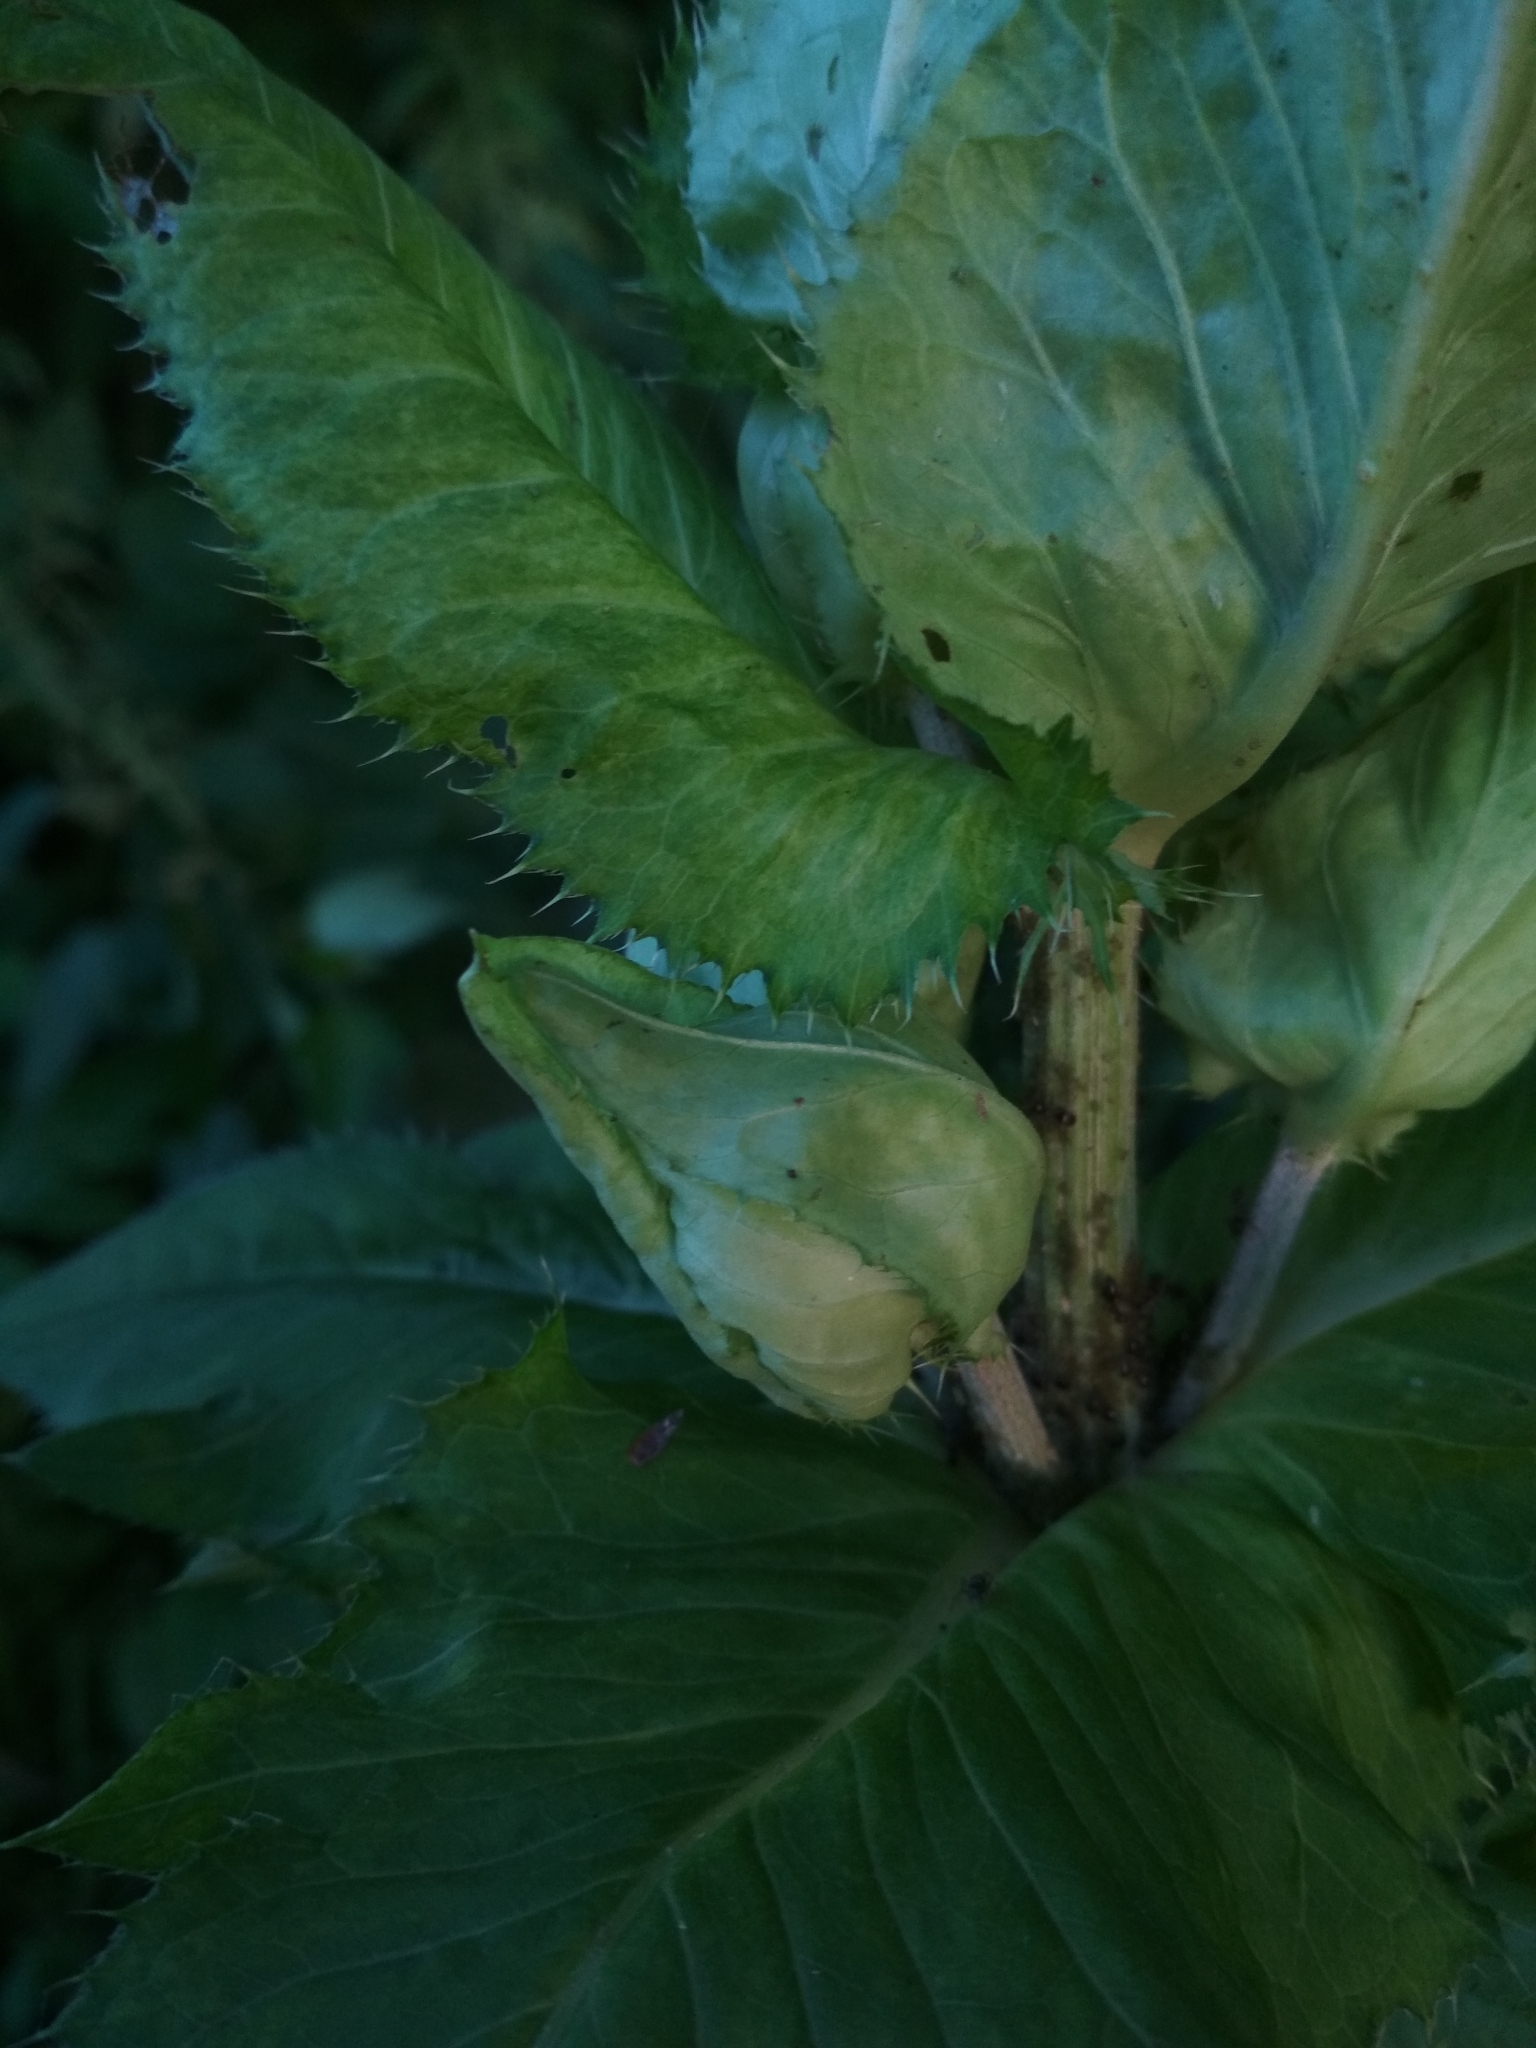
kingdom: Plantae
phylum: Tracheophyta
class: Magnoliopsida
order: Asterales
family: Asteraceae
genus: Cirsium
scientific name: Cirsium oleraceum
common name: Cabbage thistle
